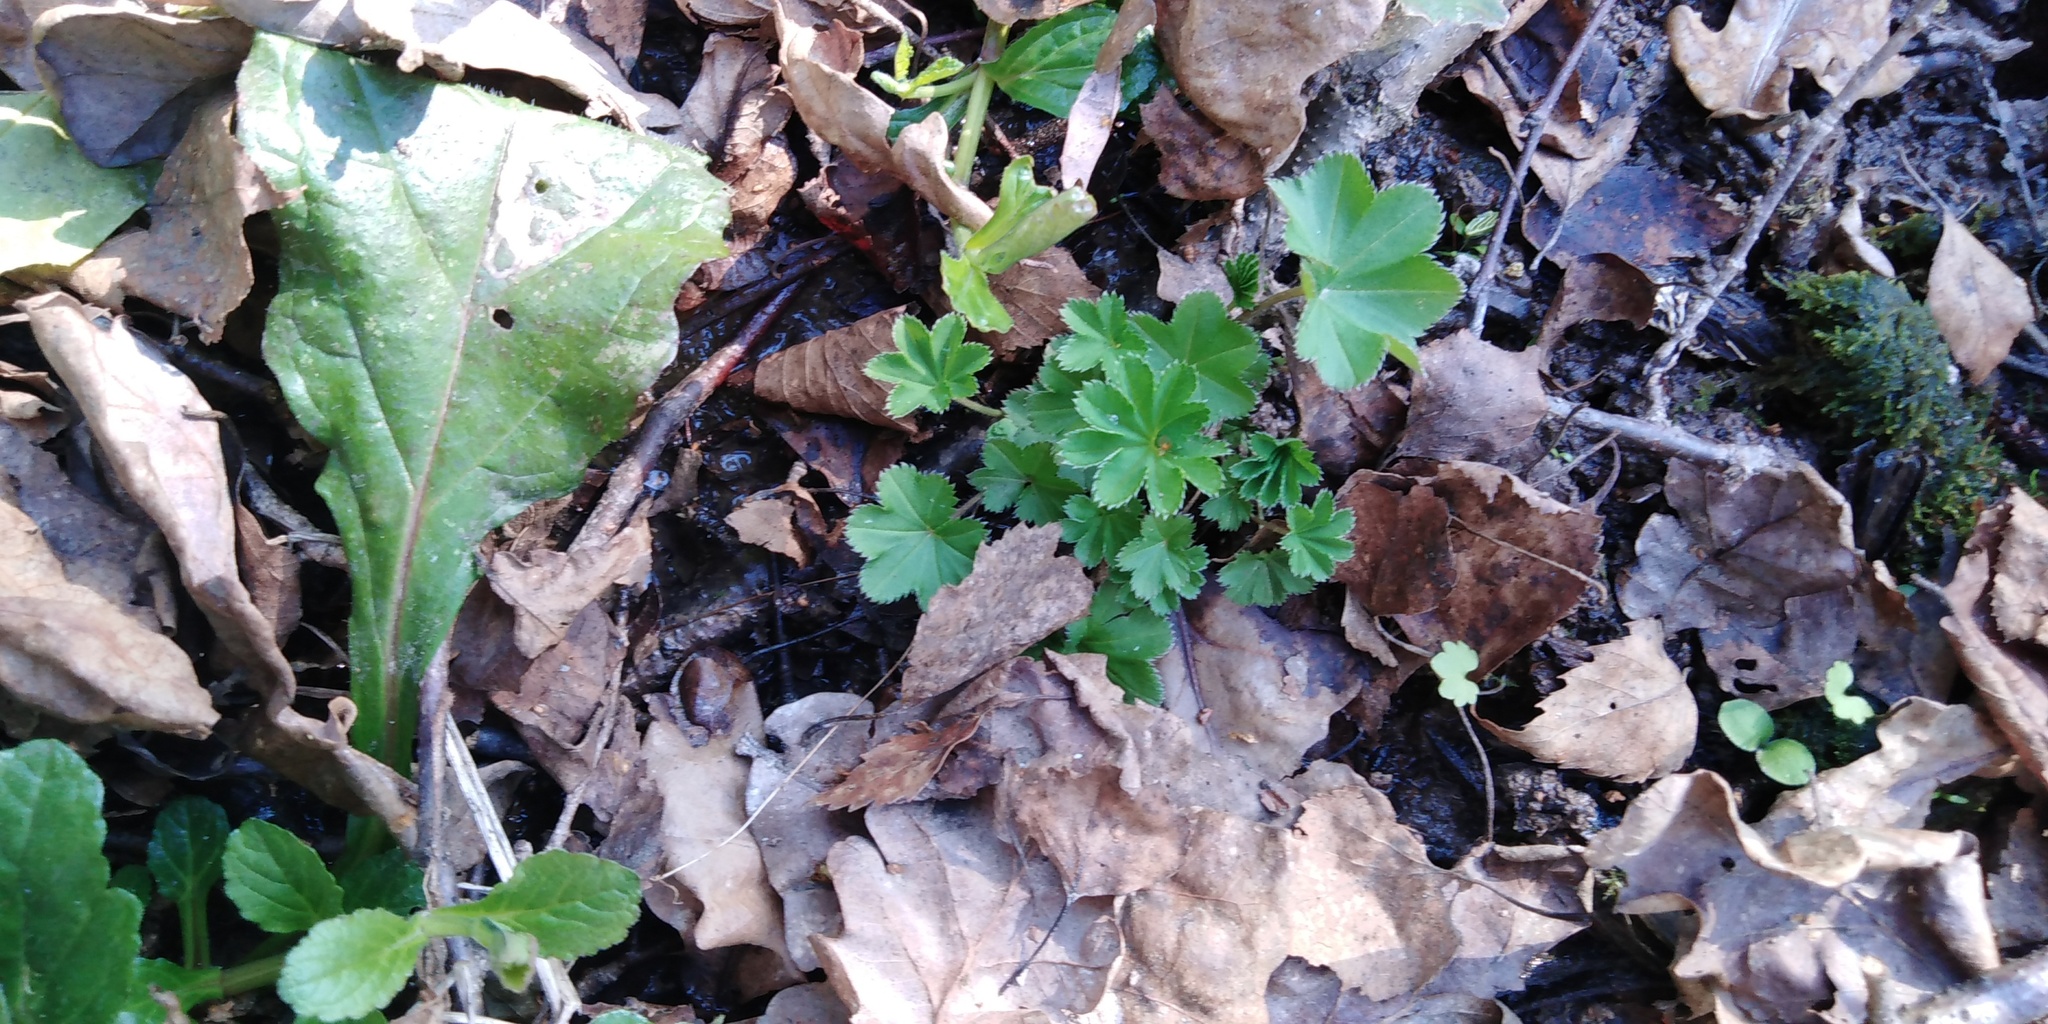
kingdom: Plantae
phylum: Tracheophyta
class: Magnoliopsida
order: Rosales
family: Rosaceae
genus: Alchemilla
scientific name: Alchemilla
